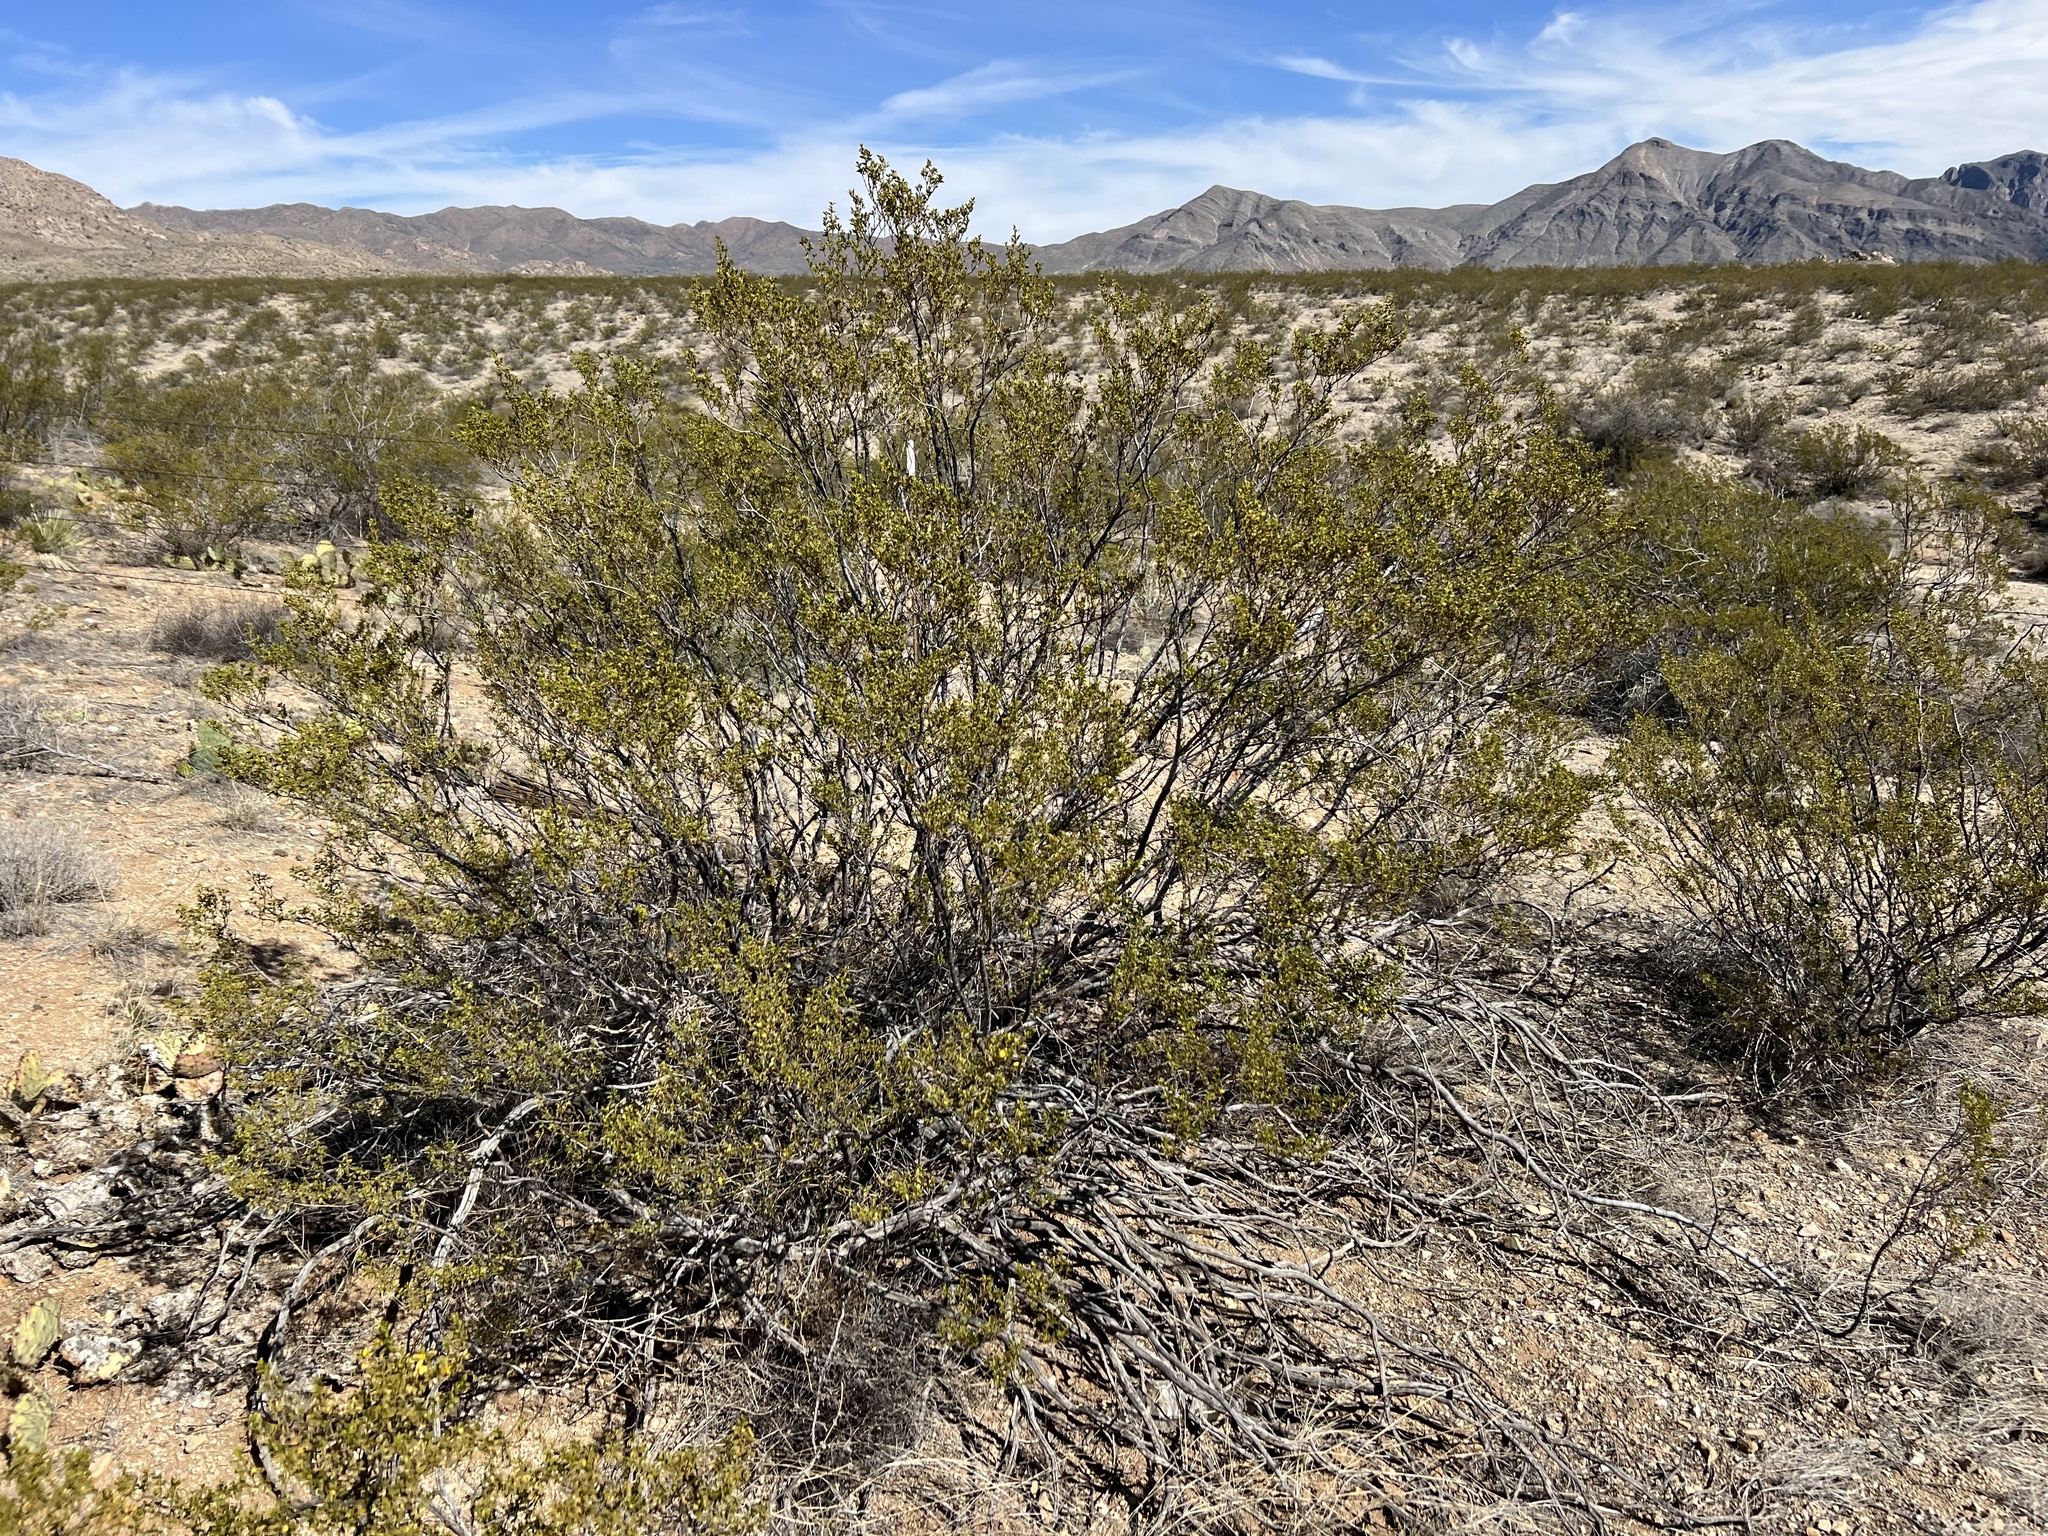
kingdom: Plantae
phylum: Tracheophyta
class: Magnoliopsida
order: Zygophyllales
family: Zygophyllaceae
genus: Larrea
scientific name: Larrea tridentata
